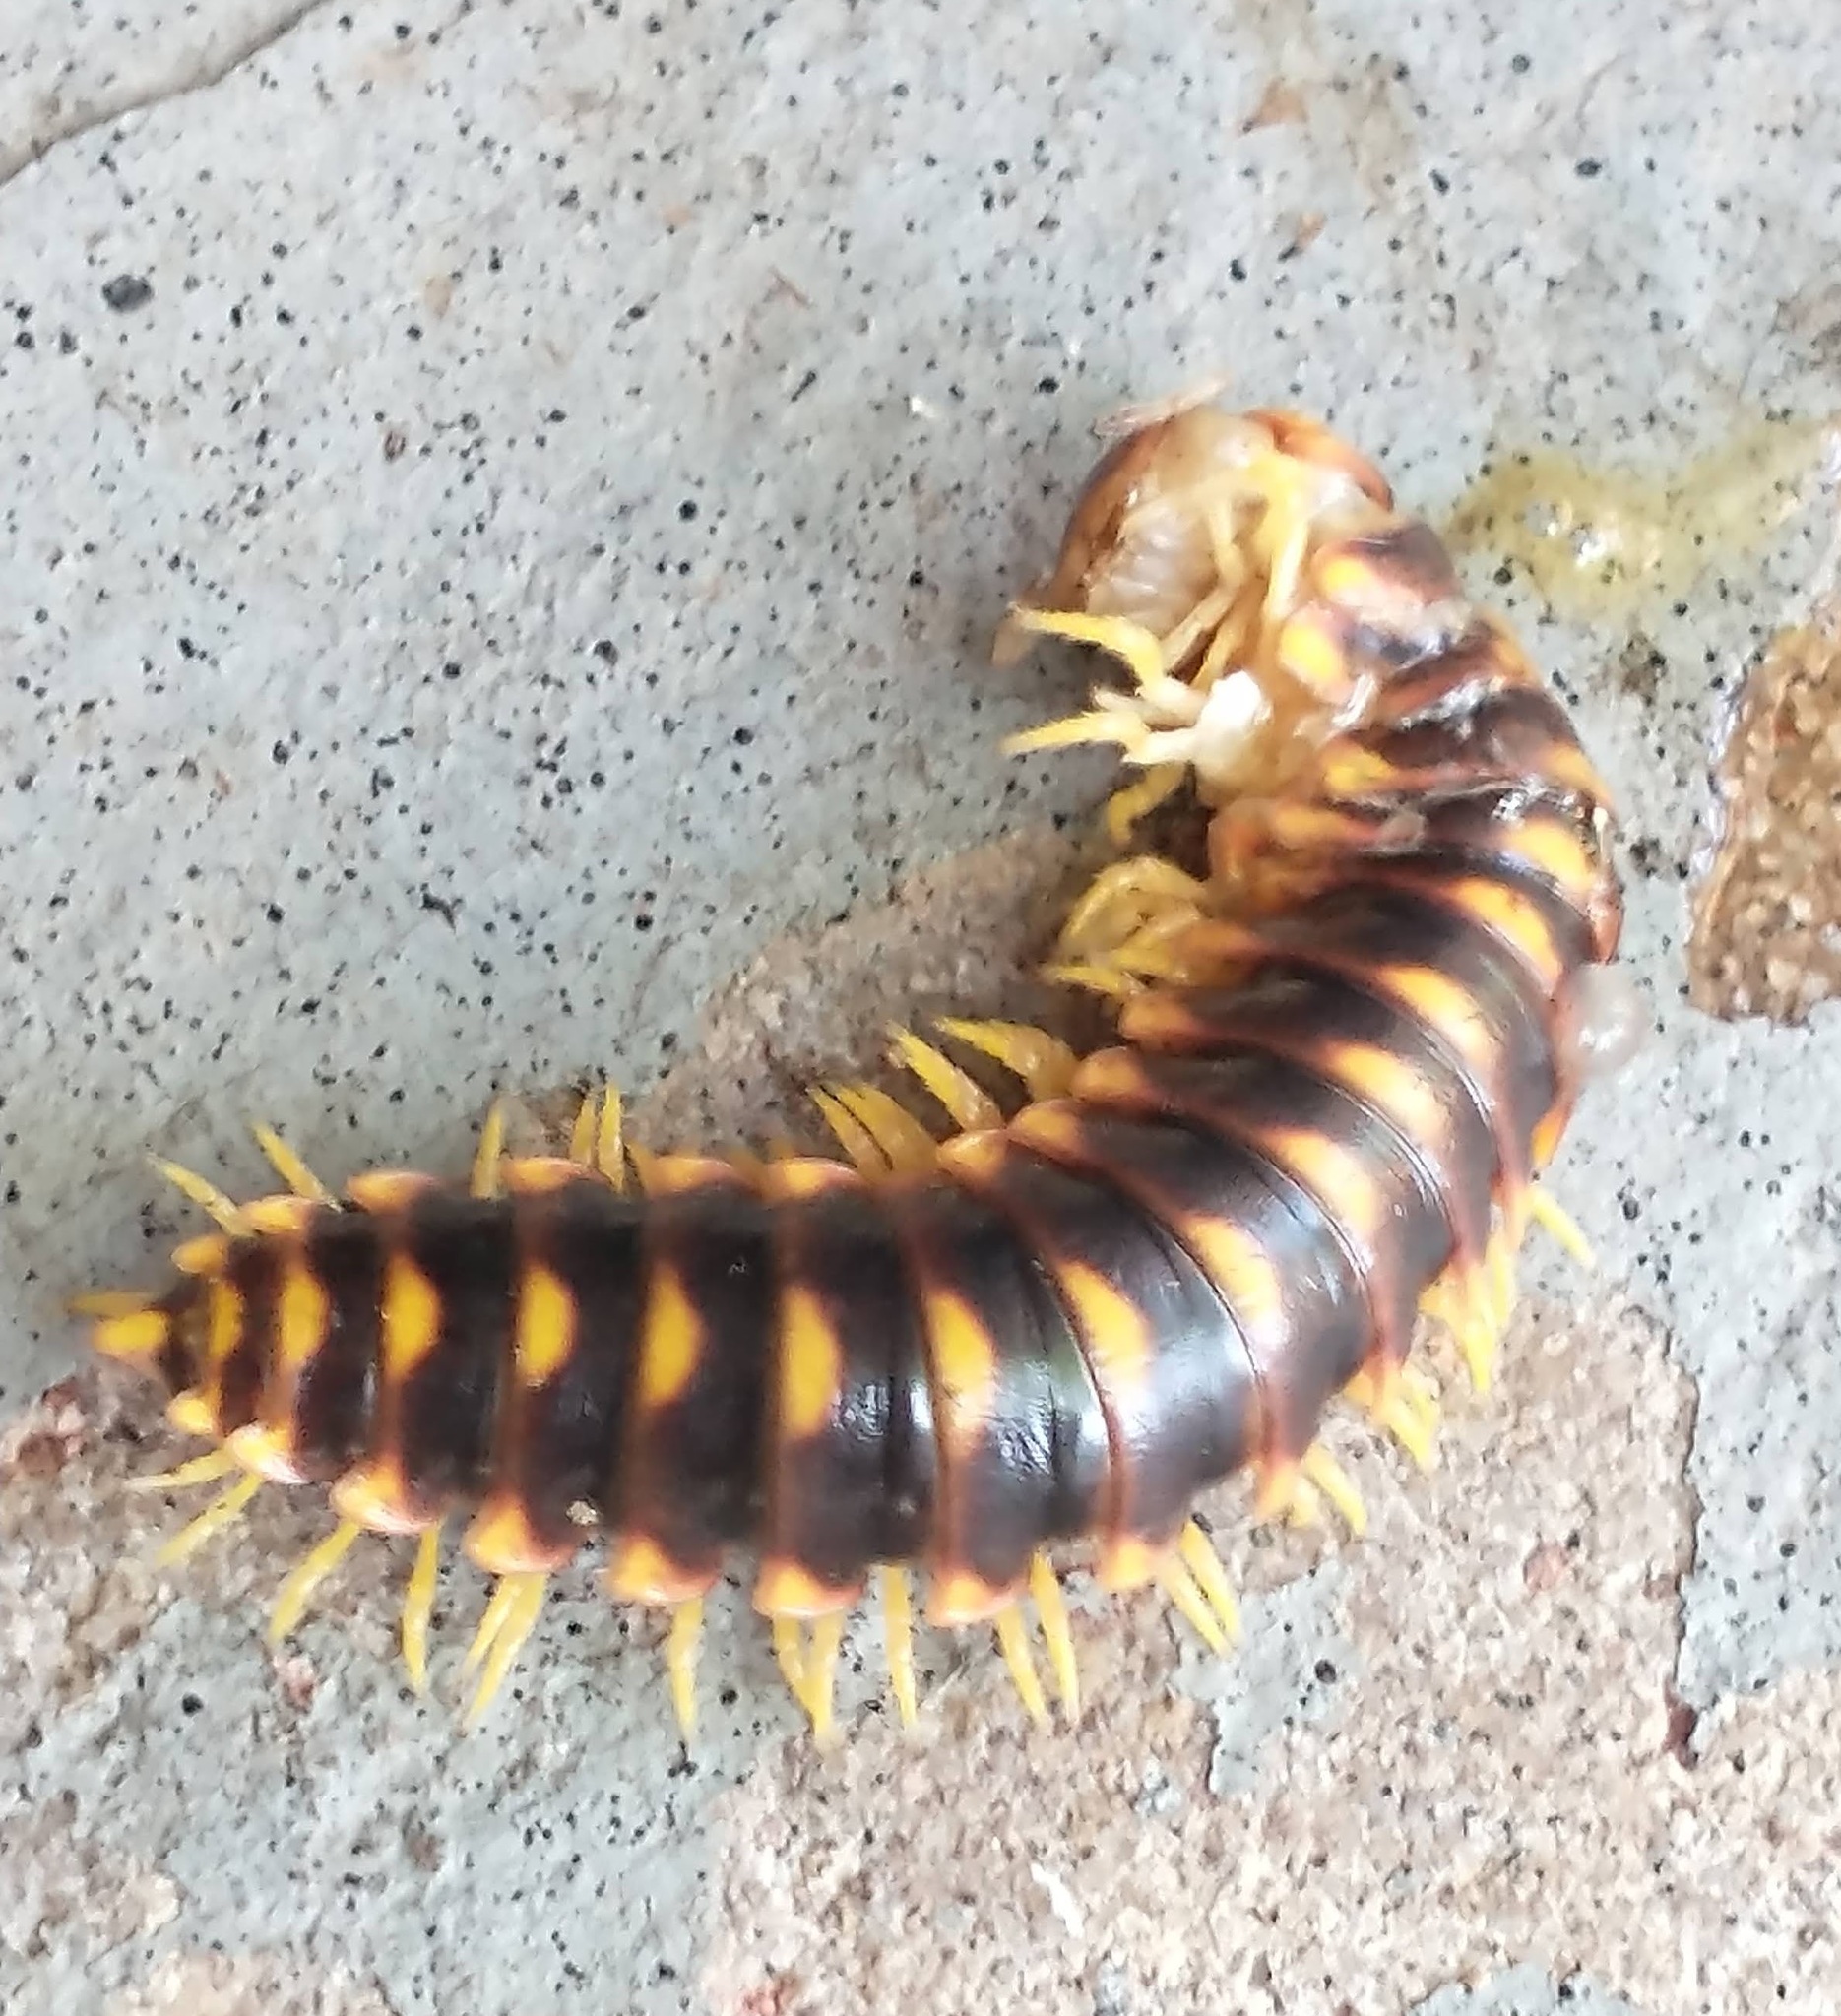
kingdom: Animalia
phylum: Arthropoda
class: Diplopoda
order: Polydesmida
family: Xystodesmidae
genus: Rudiloria
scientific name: Rudiloria trimaculata
